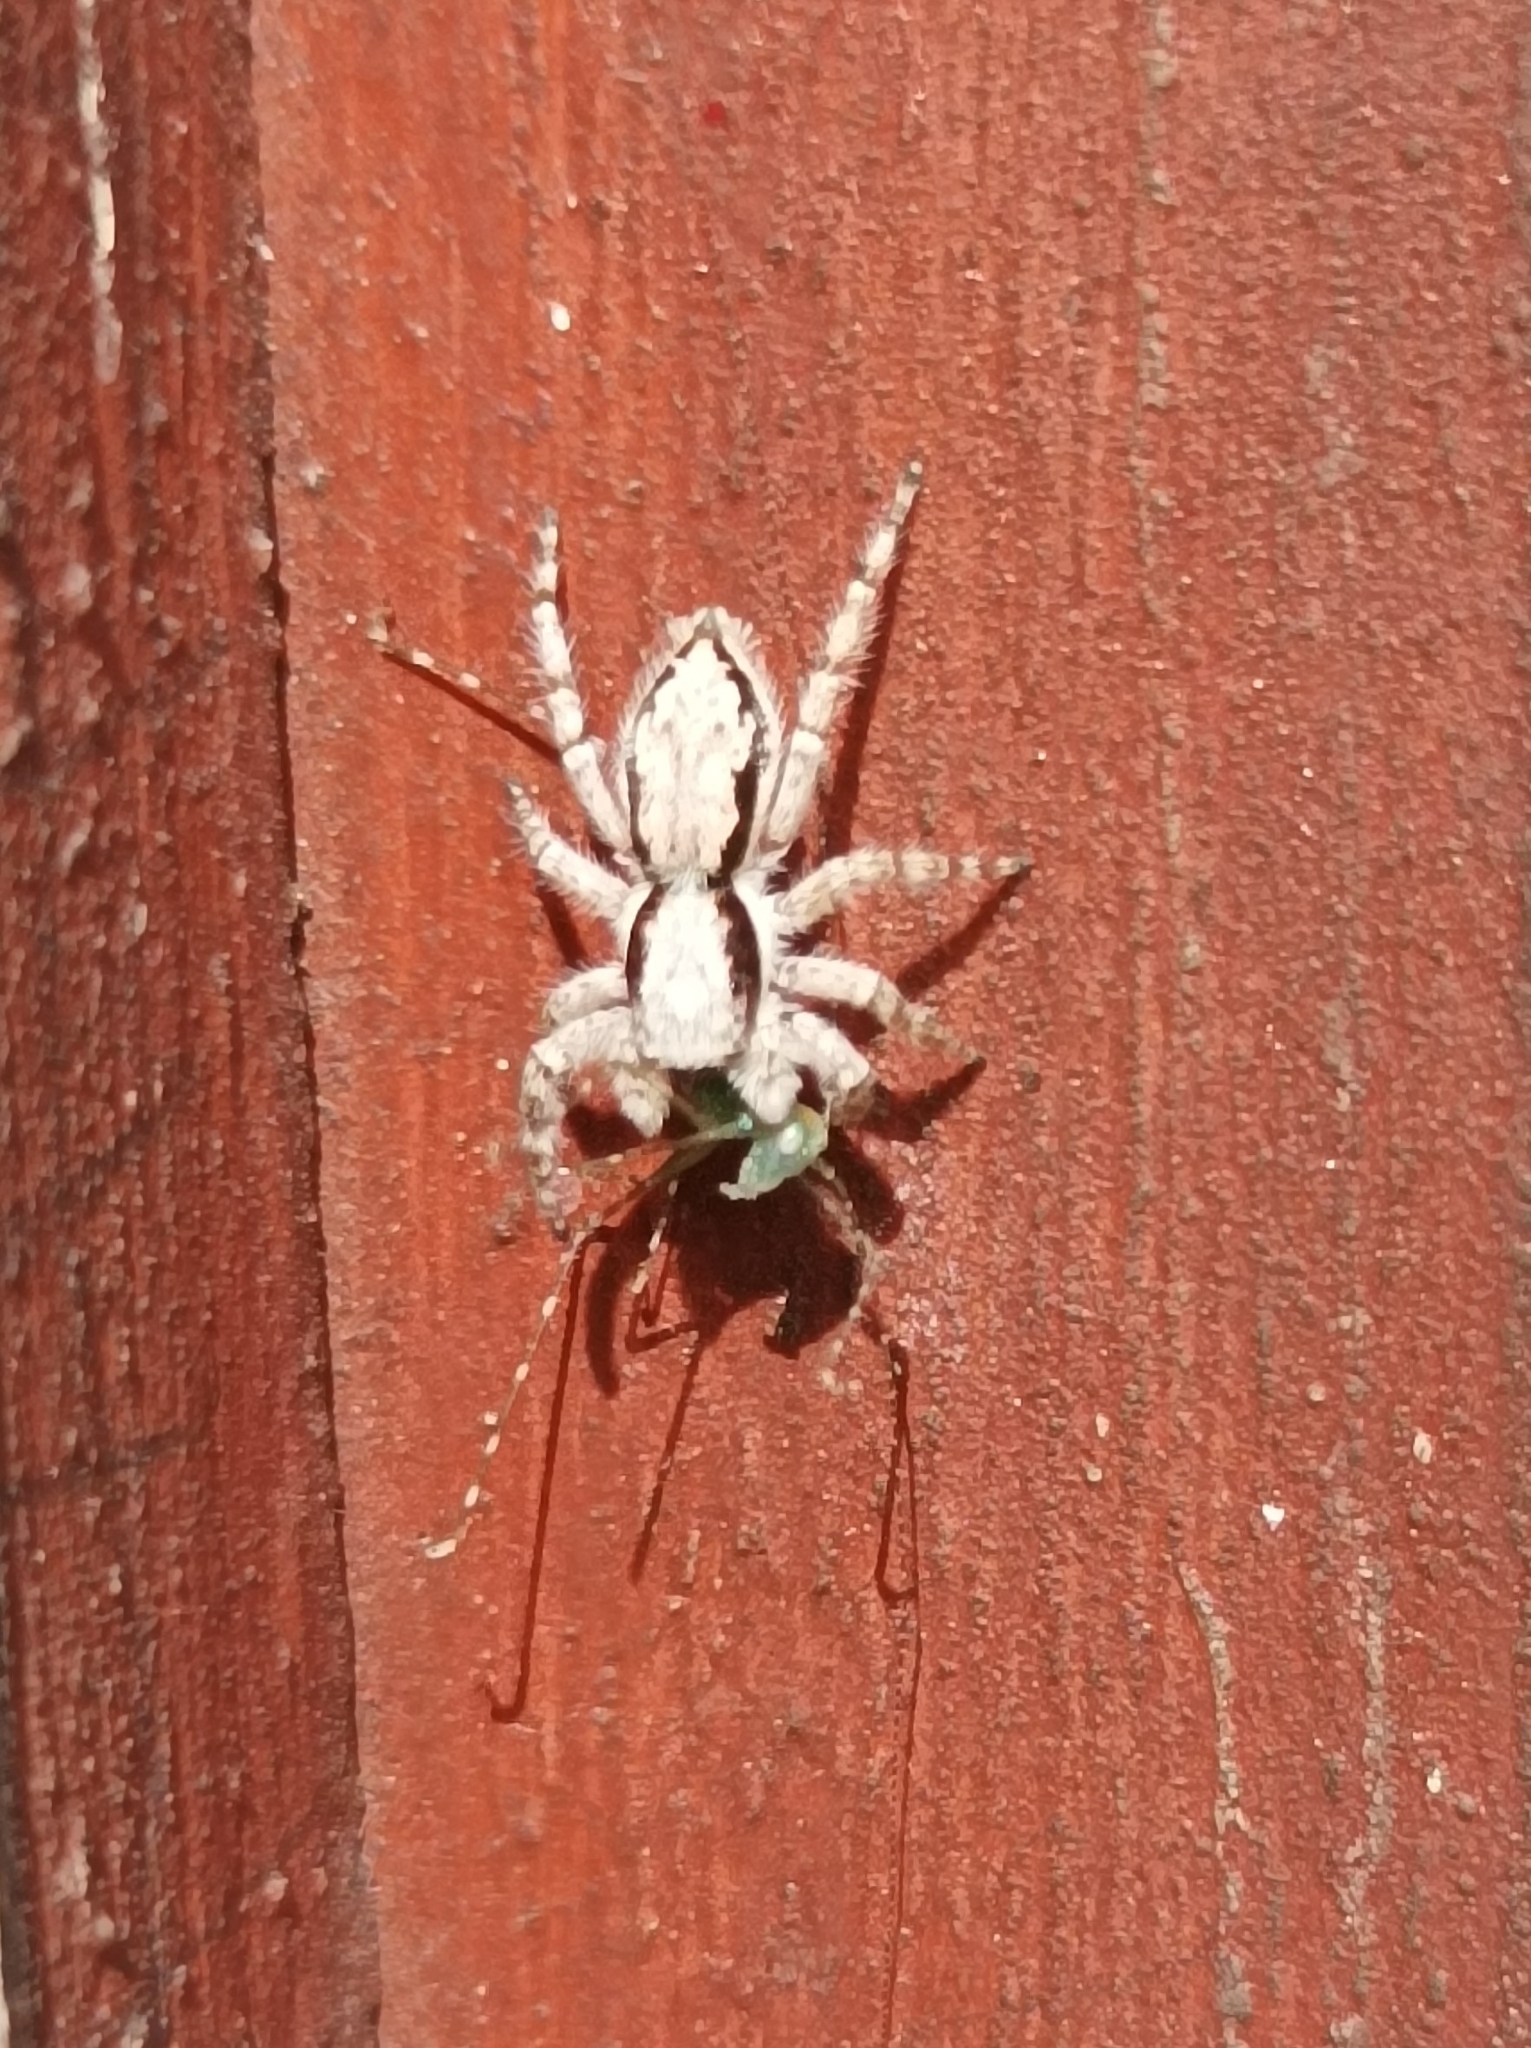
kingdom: Animalia
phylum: Arthropoda
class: Arachnida
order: Araneae
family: Salticidae
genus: Menemerus
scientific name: Menemerus bivittatus
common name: Gray wall jumper
